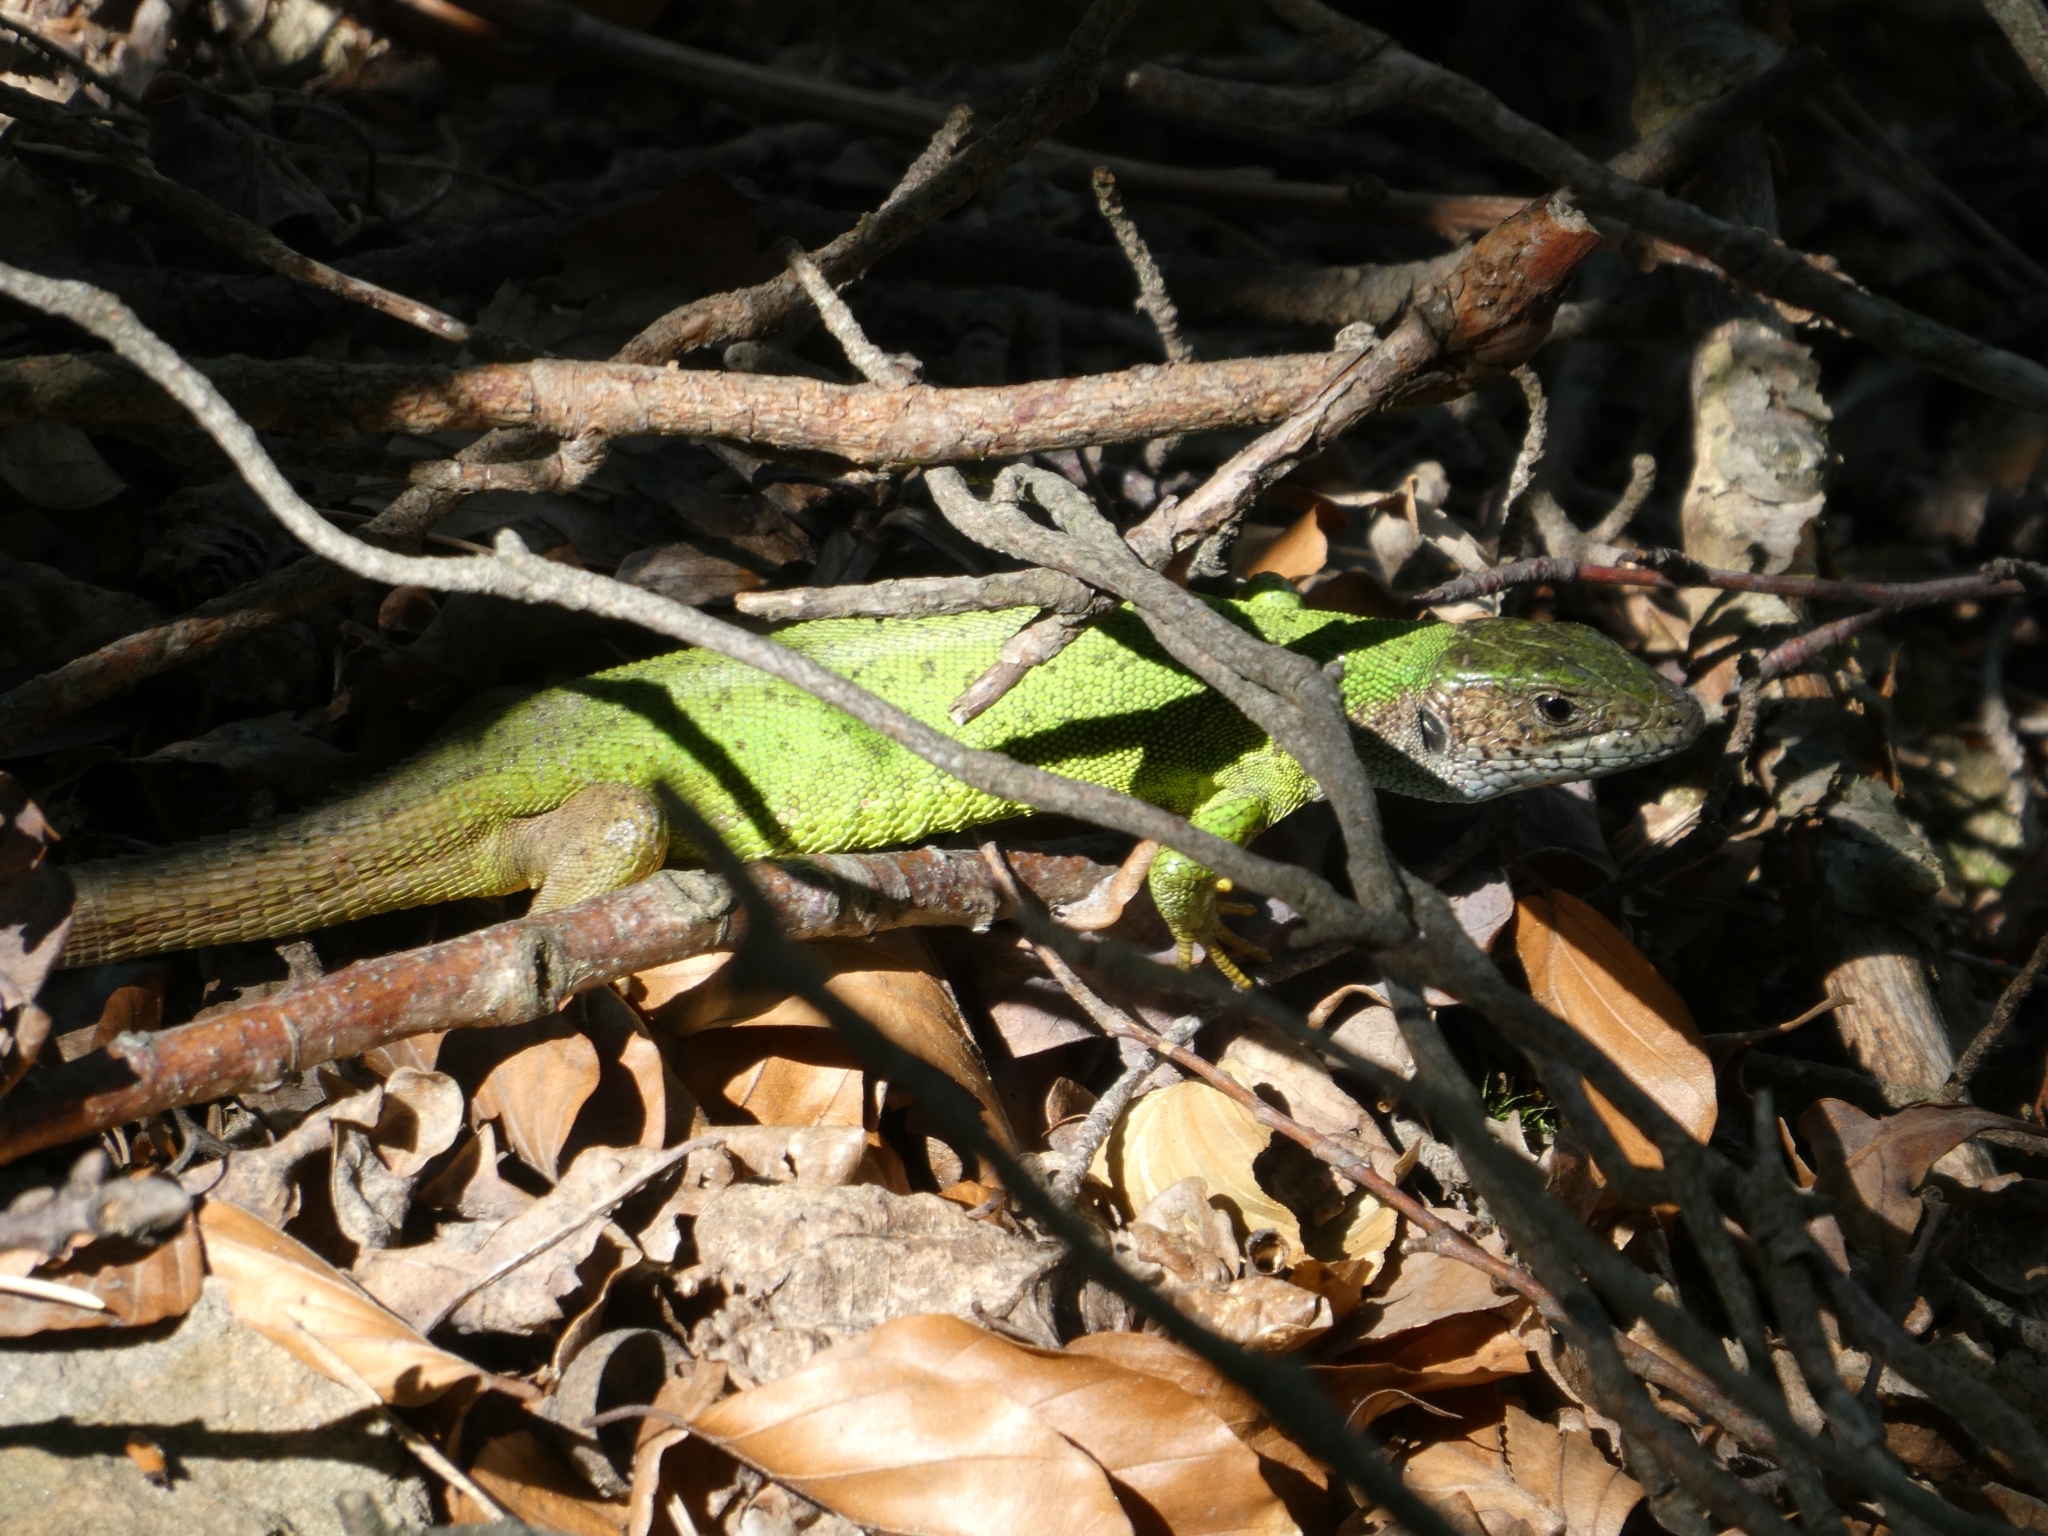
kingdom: Animalia
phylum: Chordata
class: Squamata
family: Lacertidae
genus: Lacerta
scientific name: Lacerta viridis
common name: European green lizard
